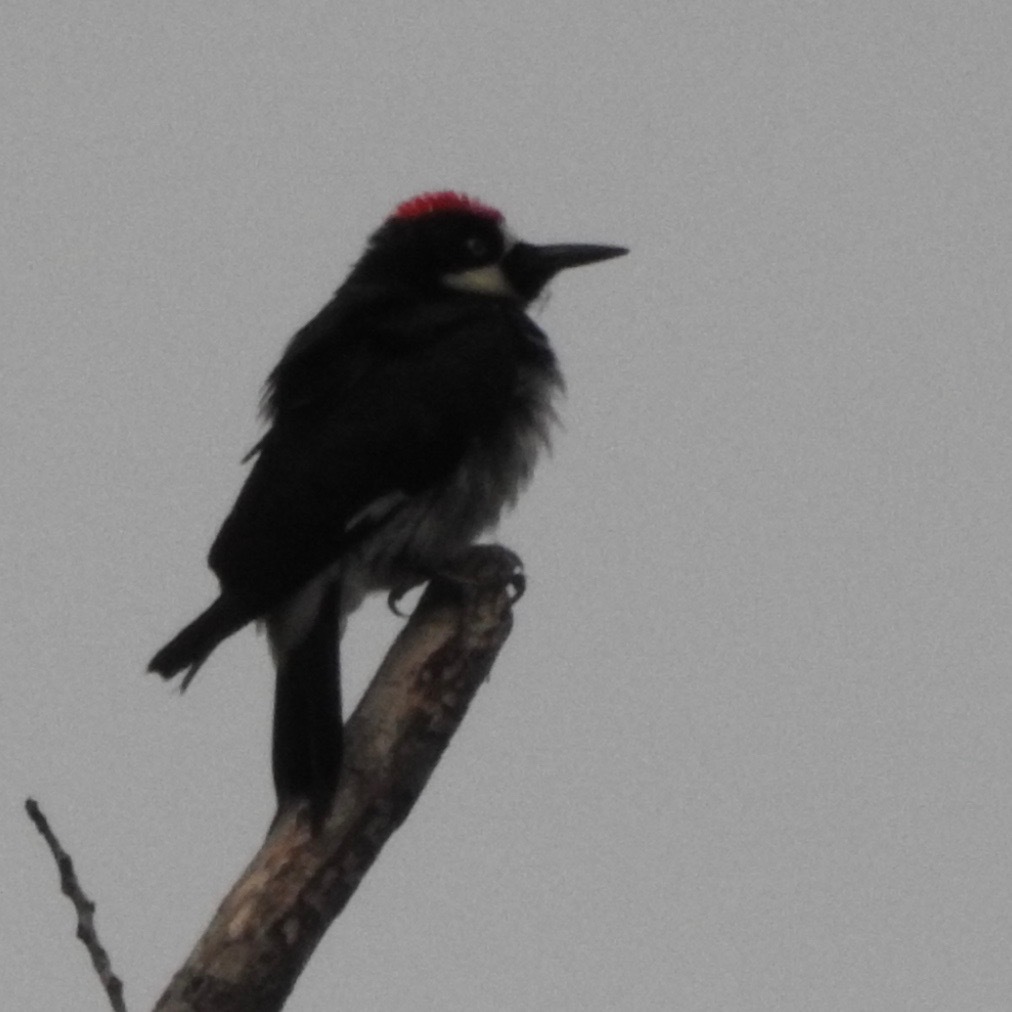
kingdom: Animalia
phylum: Chordata
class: Aves
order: Piciformes
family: Picidae
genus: Melanerpes
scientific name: Melanerpes formicivorus
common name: Acorn woodpecker
